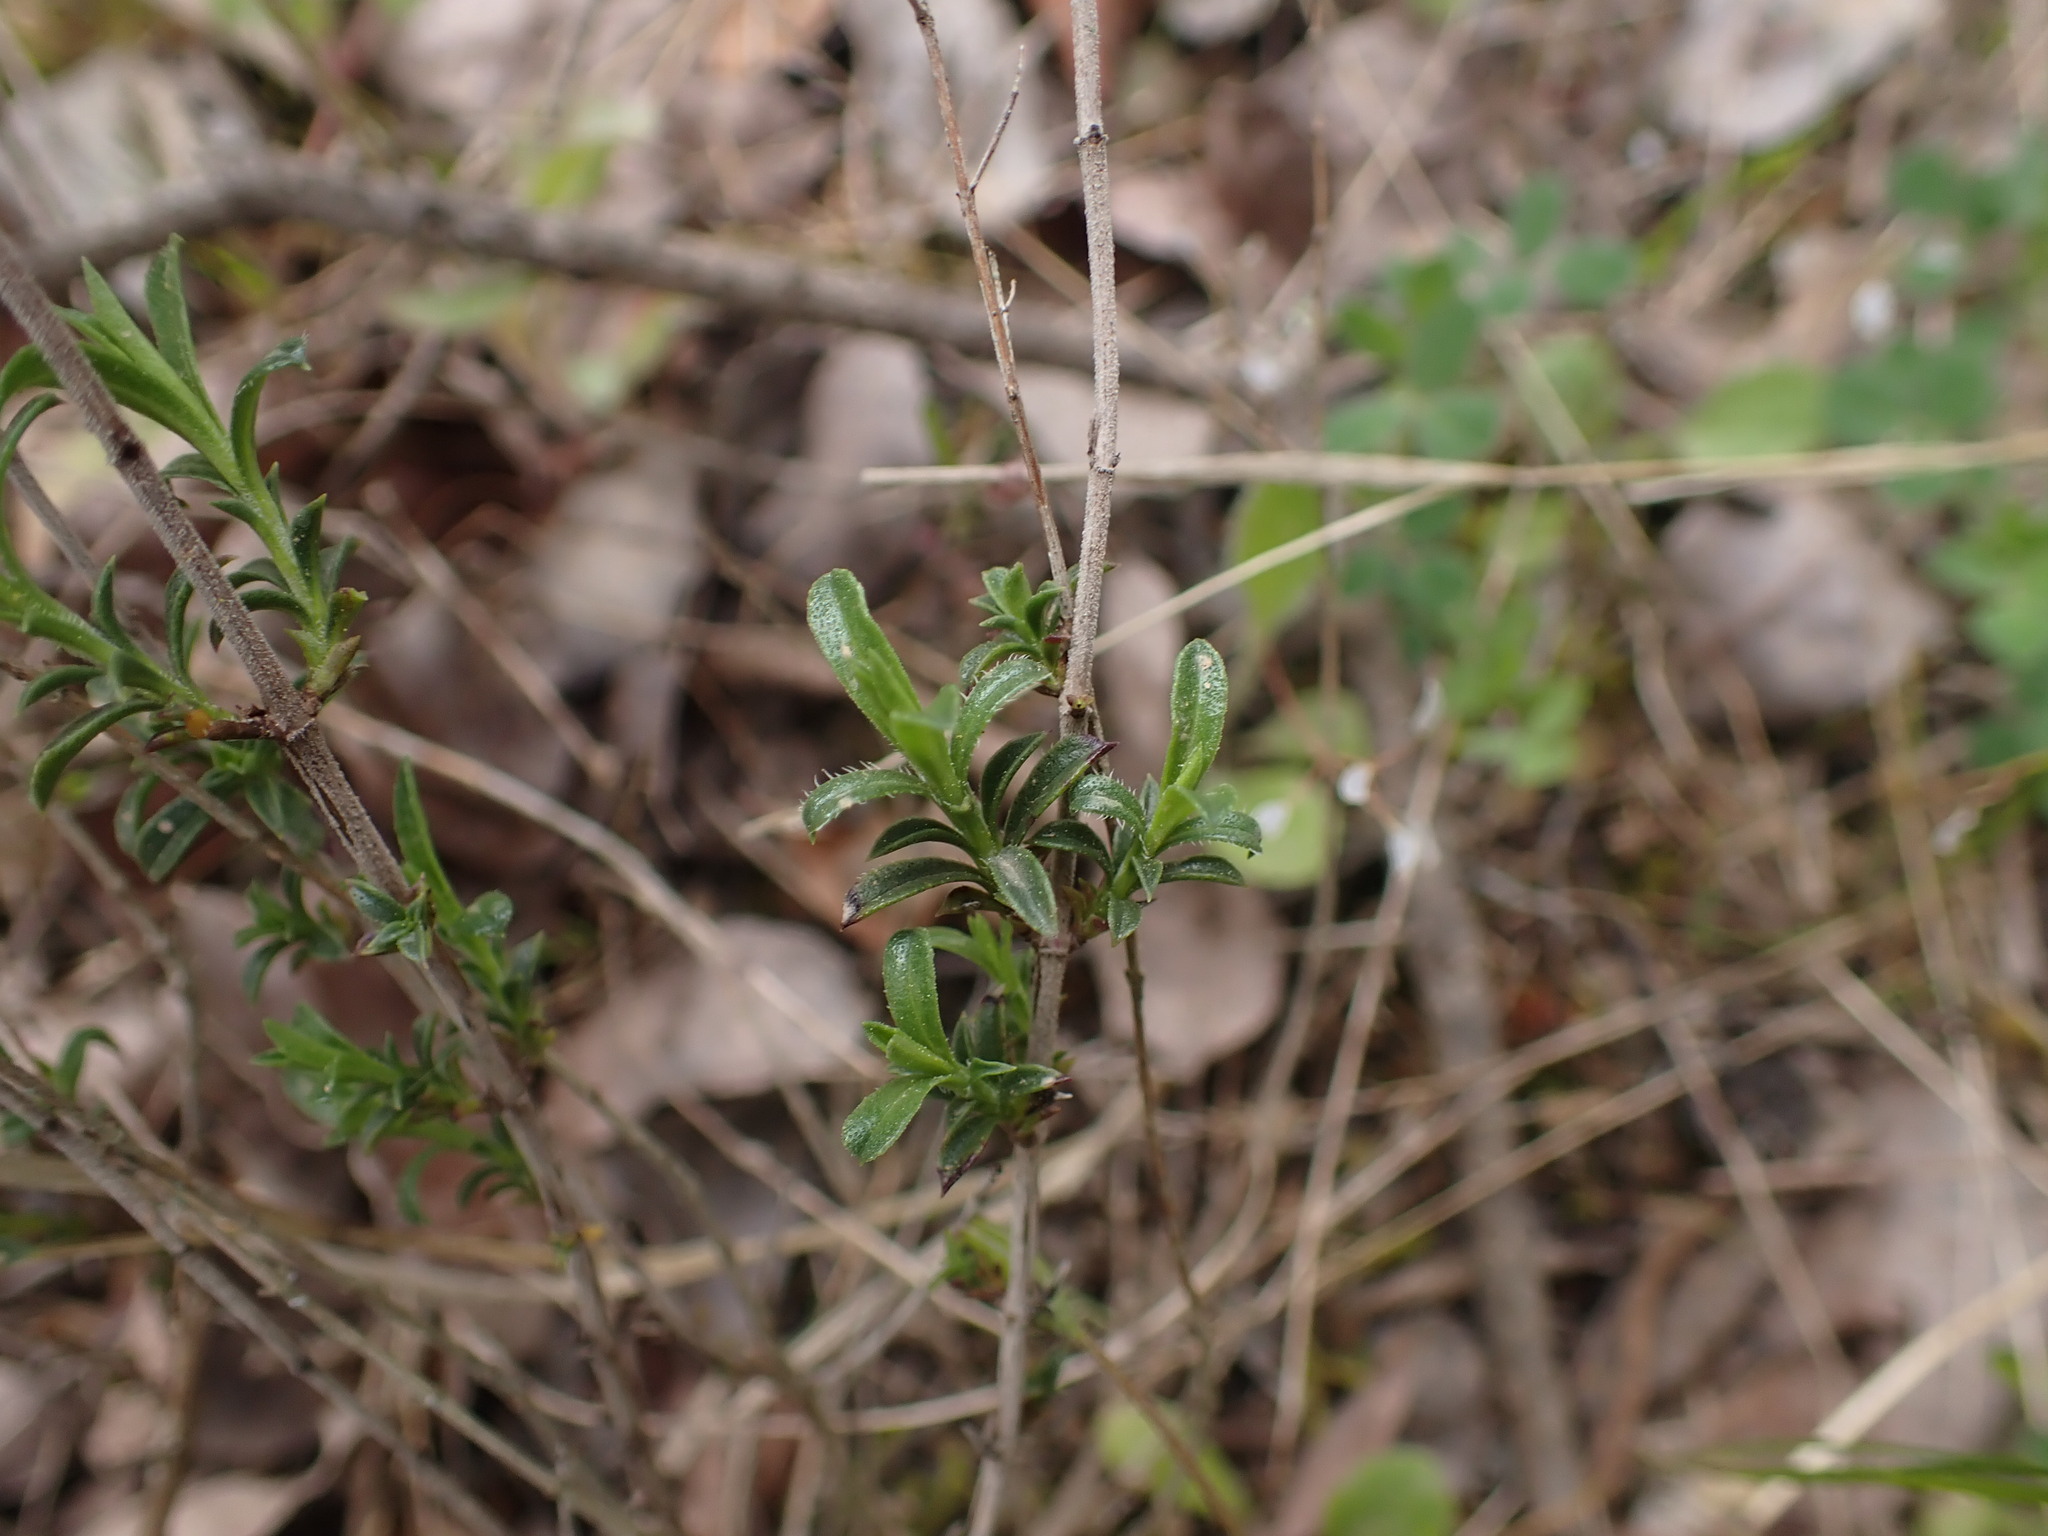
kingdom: Plantae
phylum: Tracheophyta
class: Magnoliopsida
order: Lamiales
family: Lamiaceae
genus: Satureja
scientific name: Satureja montana
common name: Winter savory
